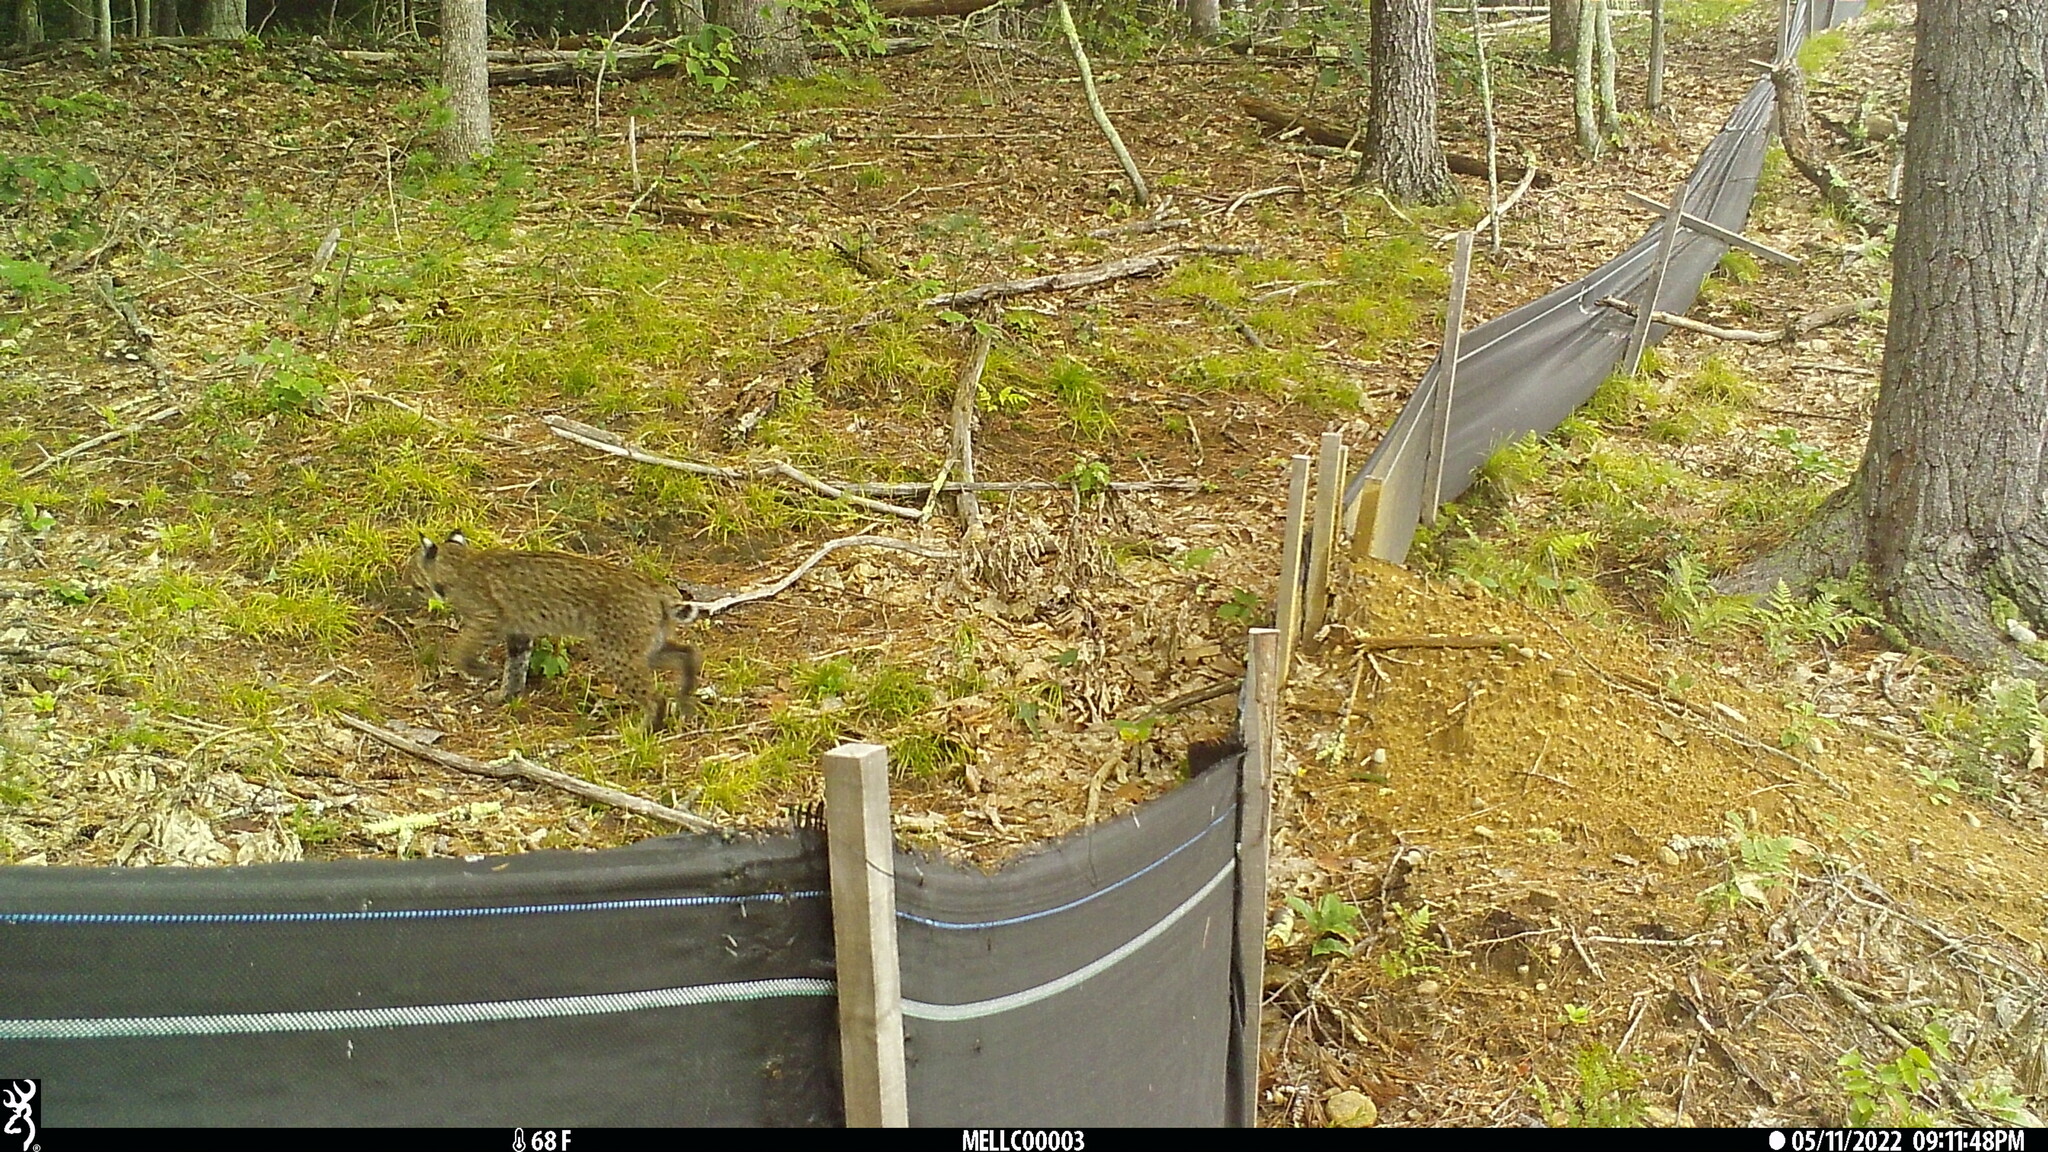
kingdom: Animalia
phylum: Chordata
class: Mammalia
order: Carnivora
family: Felidae
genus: Lynx
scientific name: Lynx rufus
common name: Bobcat
